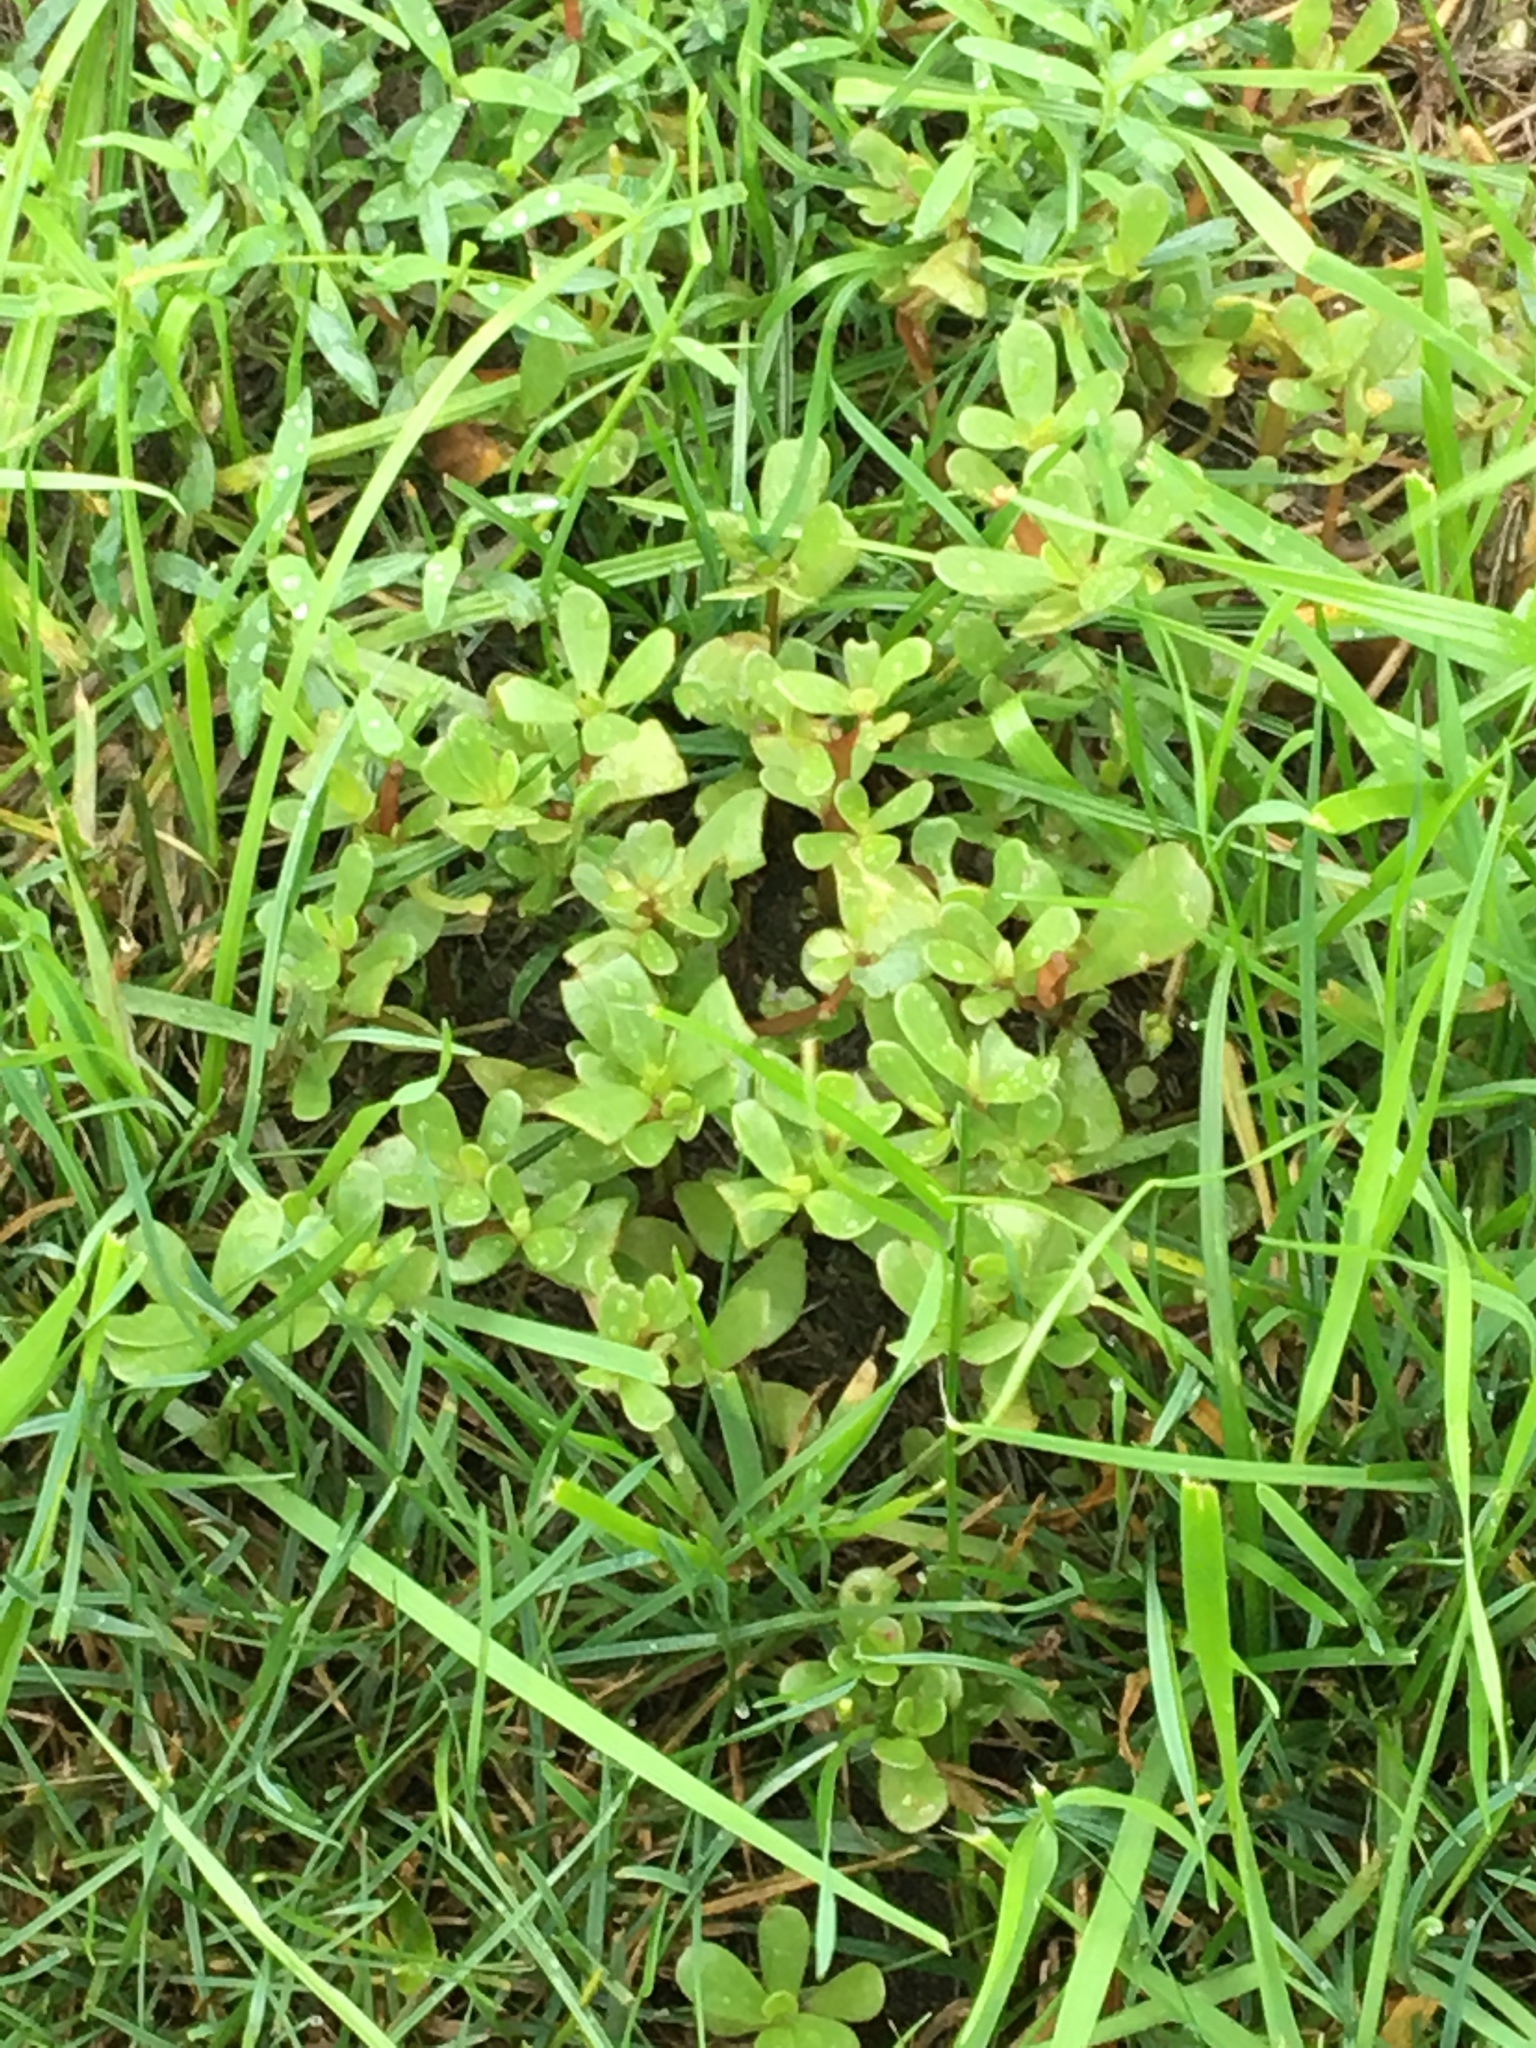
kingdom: Plantae
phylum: Tracheophyta
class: Magnoliopsida
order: Caryophyllales
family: Portulacaceae
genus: Portulaca
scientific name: Portulaca oleracea
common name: Common purslane
